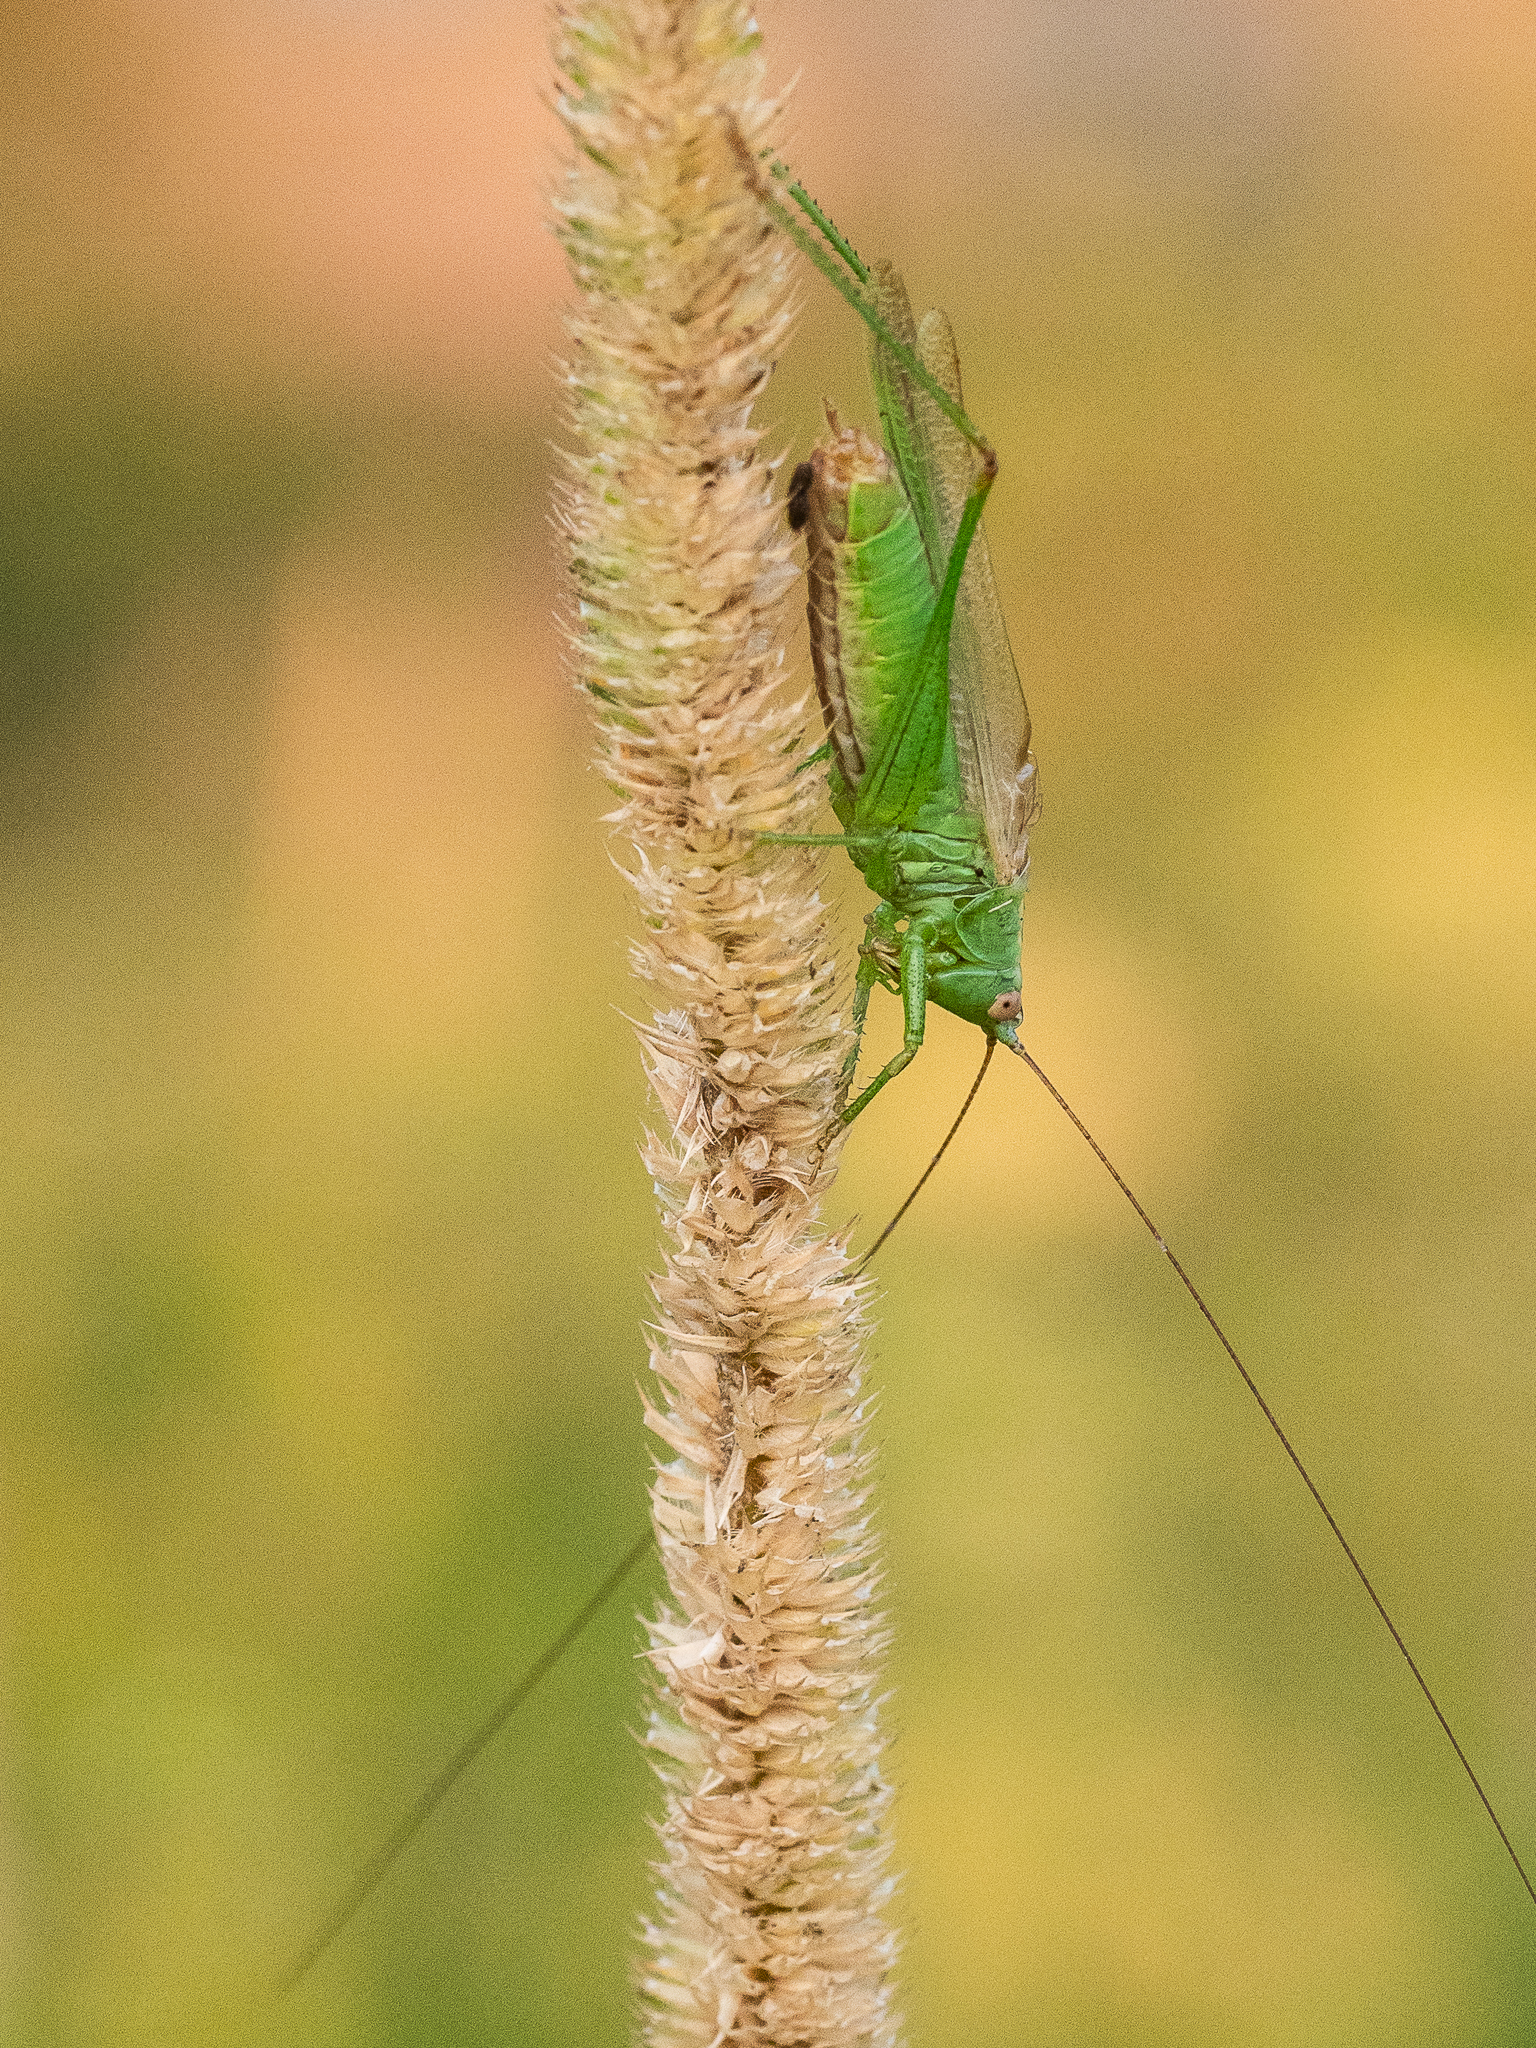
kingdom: Animalia
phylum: Arthropoda
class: Insecta
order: Orthoptera
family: Tettigoniidae
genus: Conocephalus
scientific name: Conocephalus fuscus
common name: Long-winged conehead
